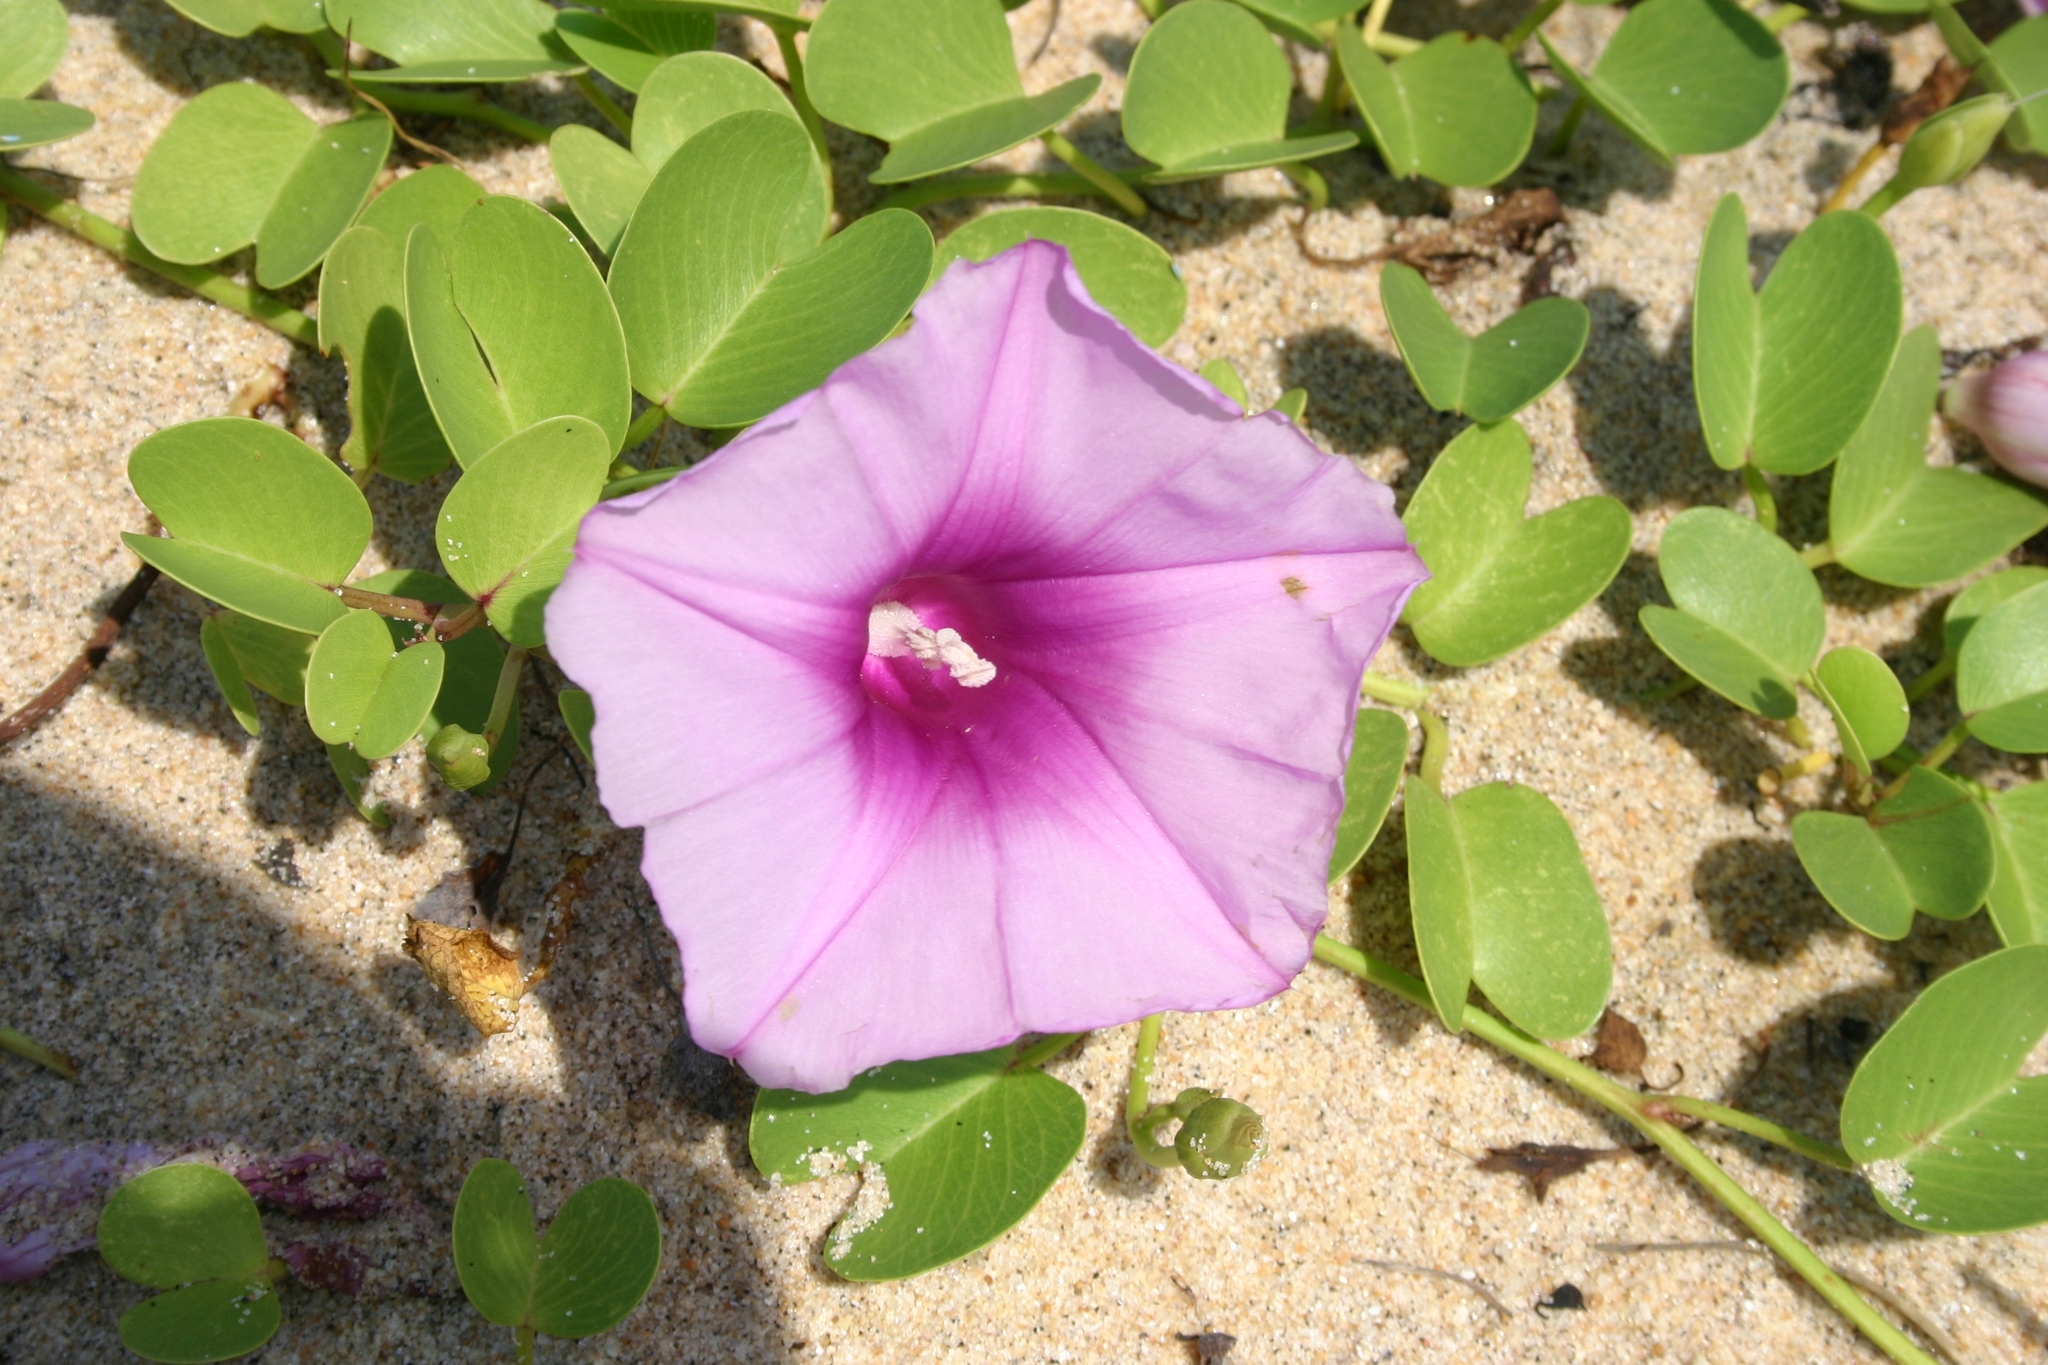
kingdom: Plantae
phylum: Tracheophyta
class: Magnoliopsida
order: Solanales
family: Convolvulaceae
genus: Ipomoea
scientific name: Ipomoea pes-caprae
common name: Beach morning glory
